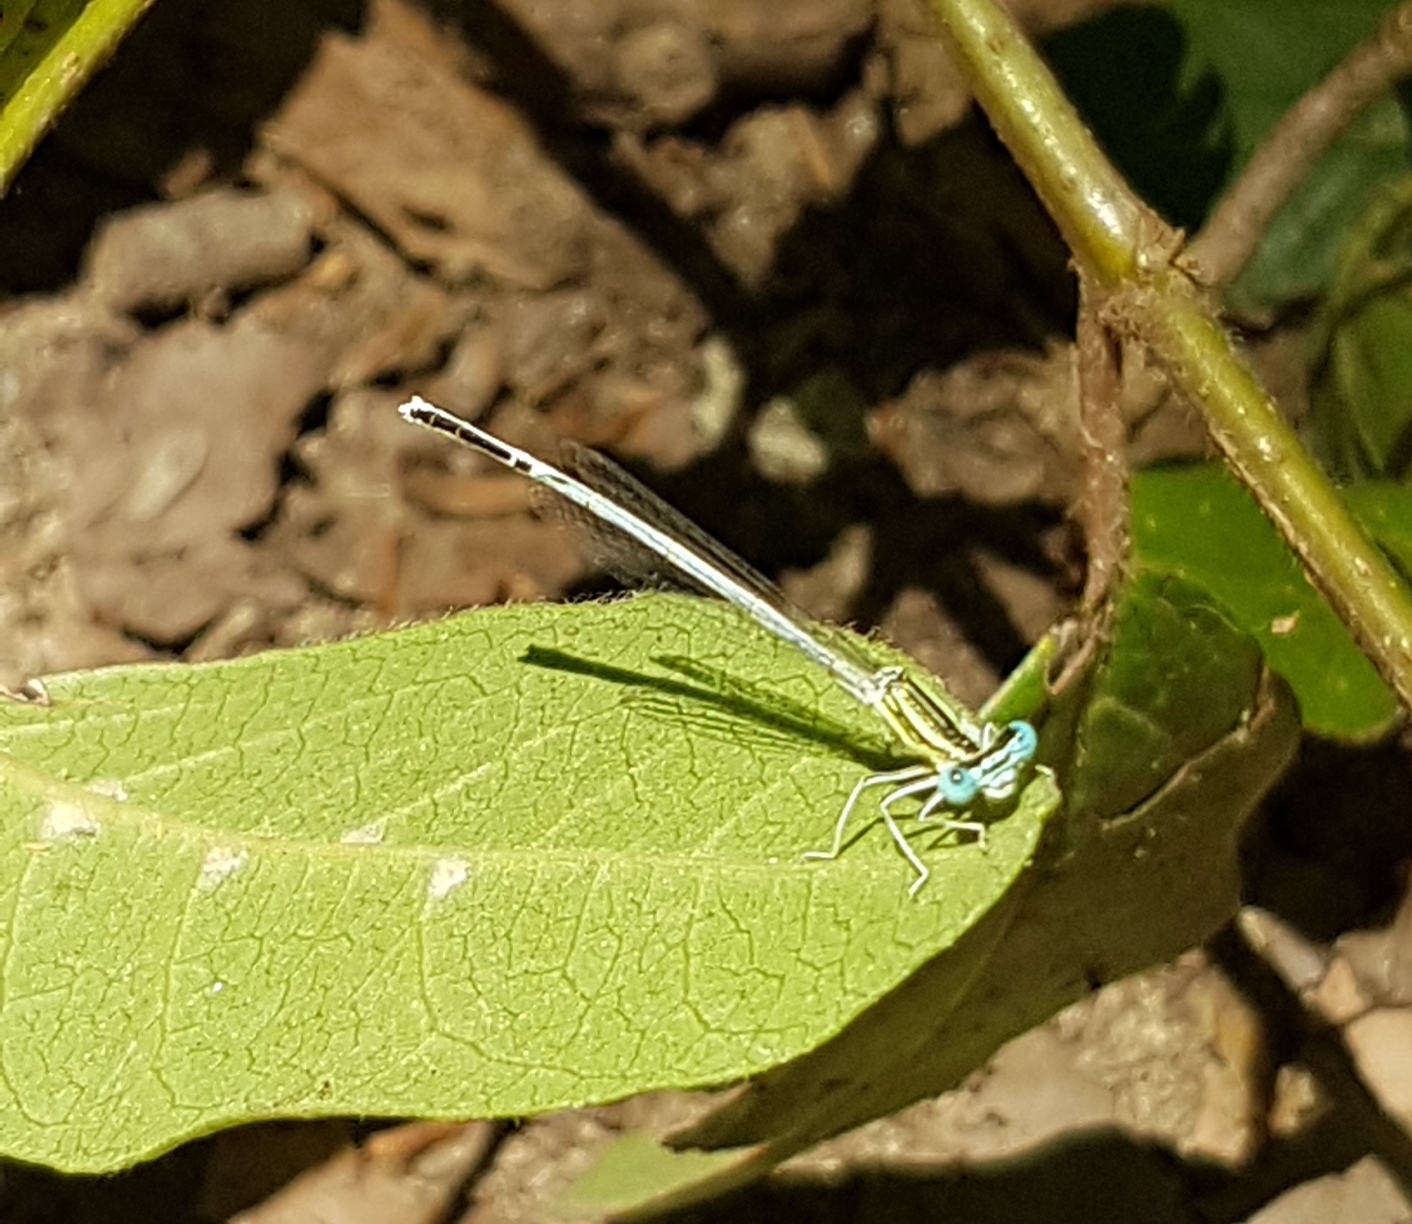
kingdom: Animalia
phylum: Arthropoda
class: Insecta
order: Odonata
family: Platycnemididae
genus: Platycnemis
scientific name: Platycnemis latipes
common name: White featherleg
